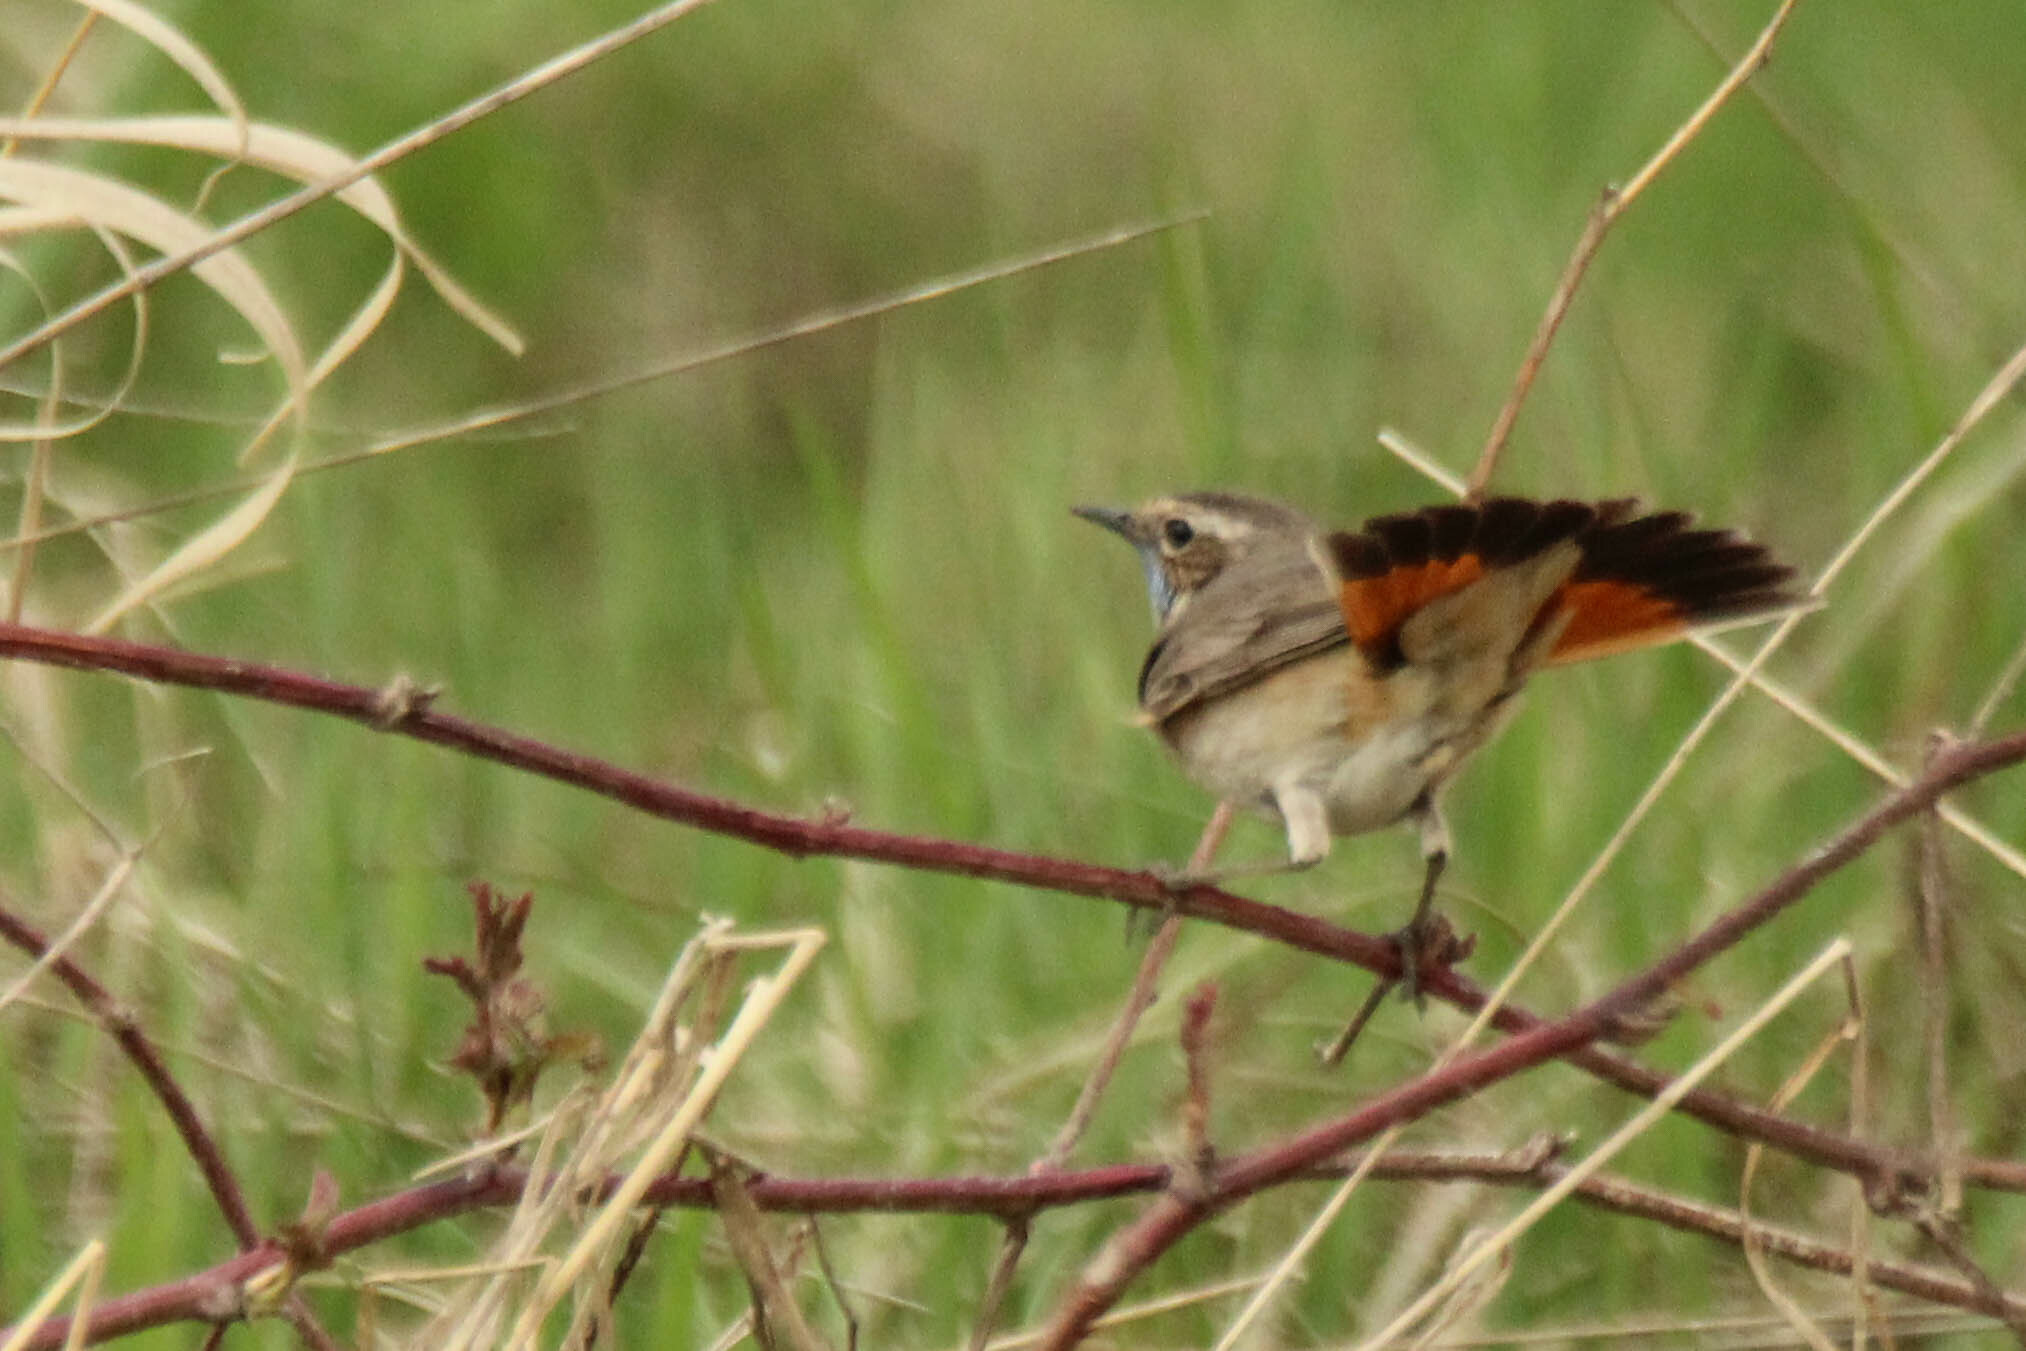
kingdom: Animalia
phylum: Chordata
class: Aves
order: Passeriformes
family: Muscicapidae
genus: Luscinia
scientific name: Luscinia svecica
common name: Bluethroat
